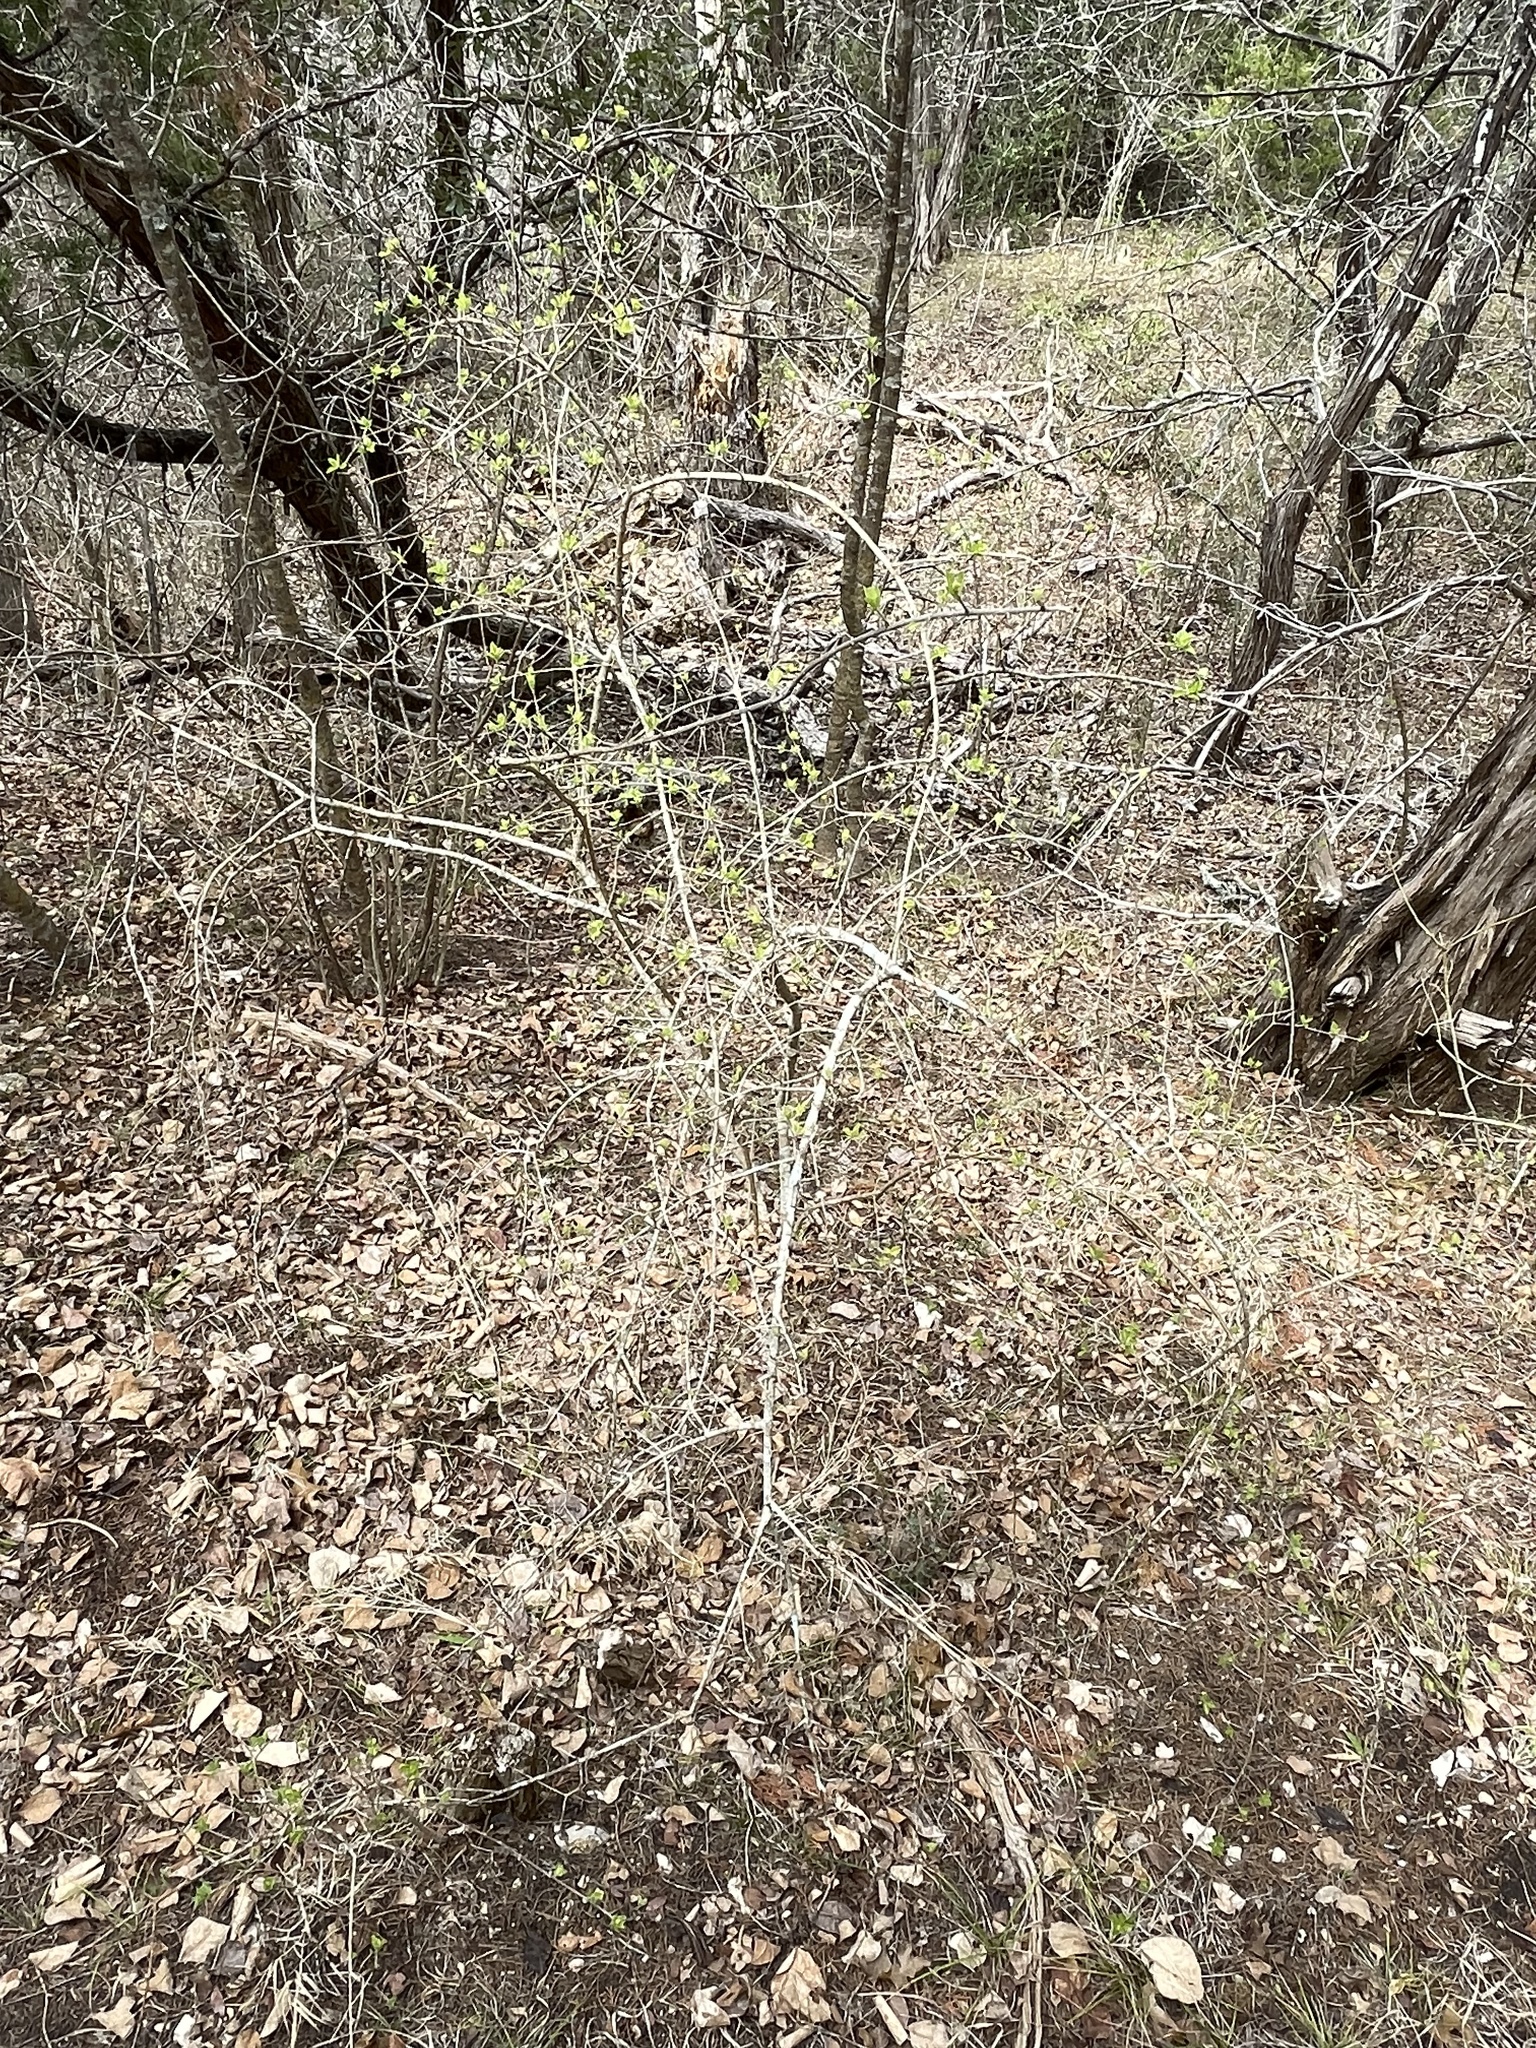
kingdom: Plantae
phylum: Tracheophyta
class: Magnoliopsida
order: Lamiales
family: Oleaceae
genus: Forestiera
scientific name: Forestiera pubescens
